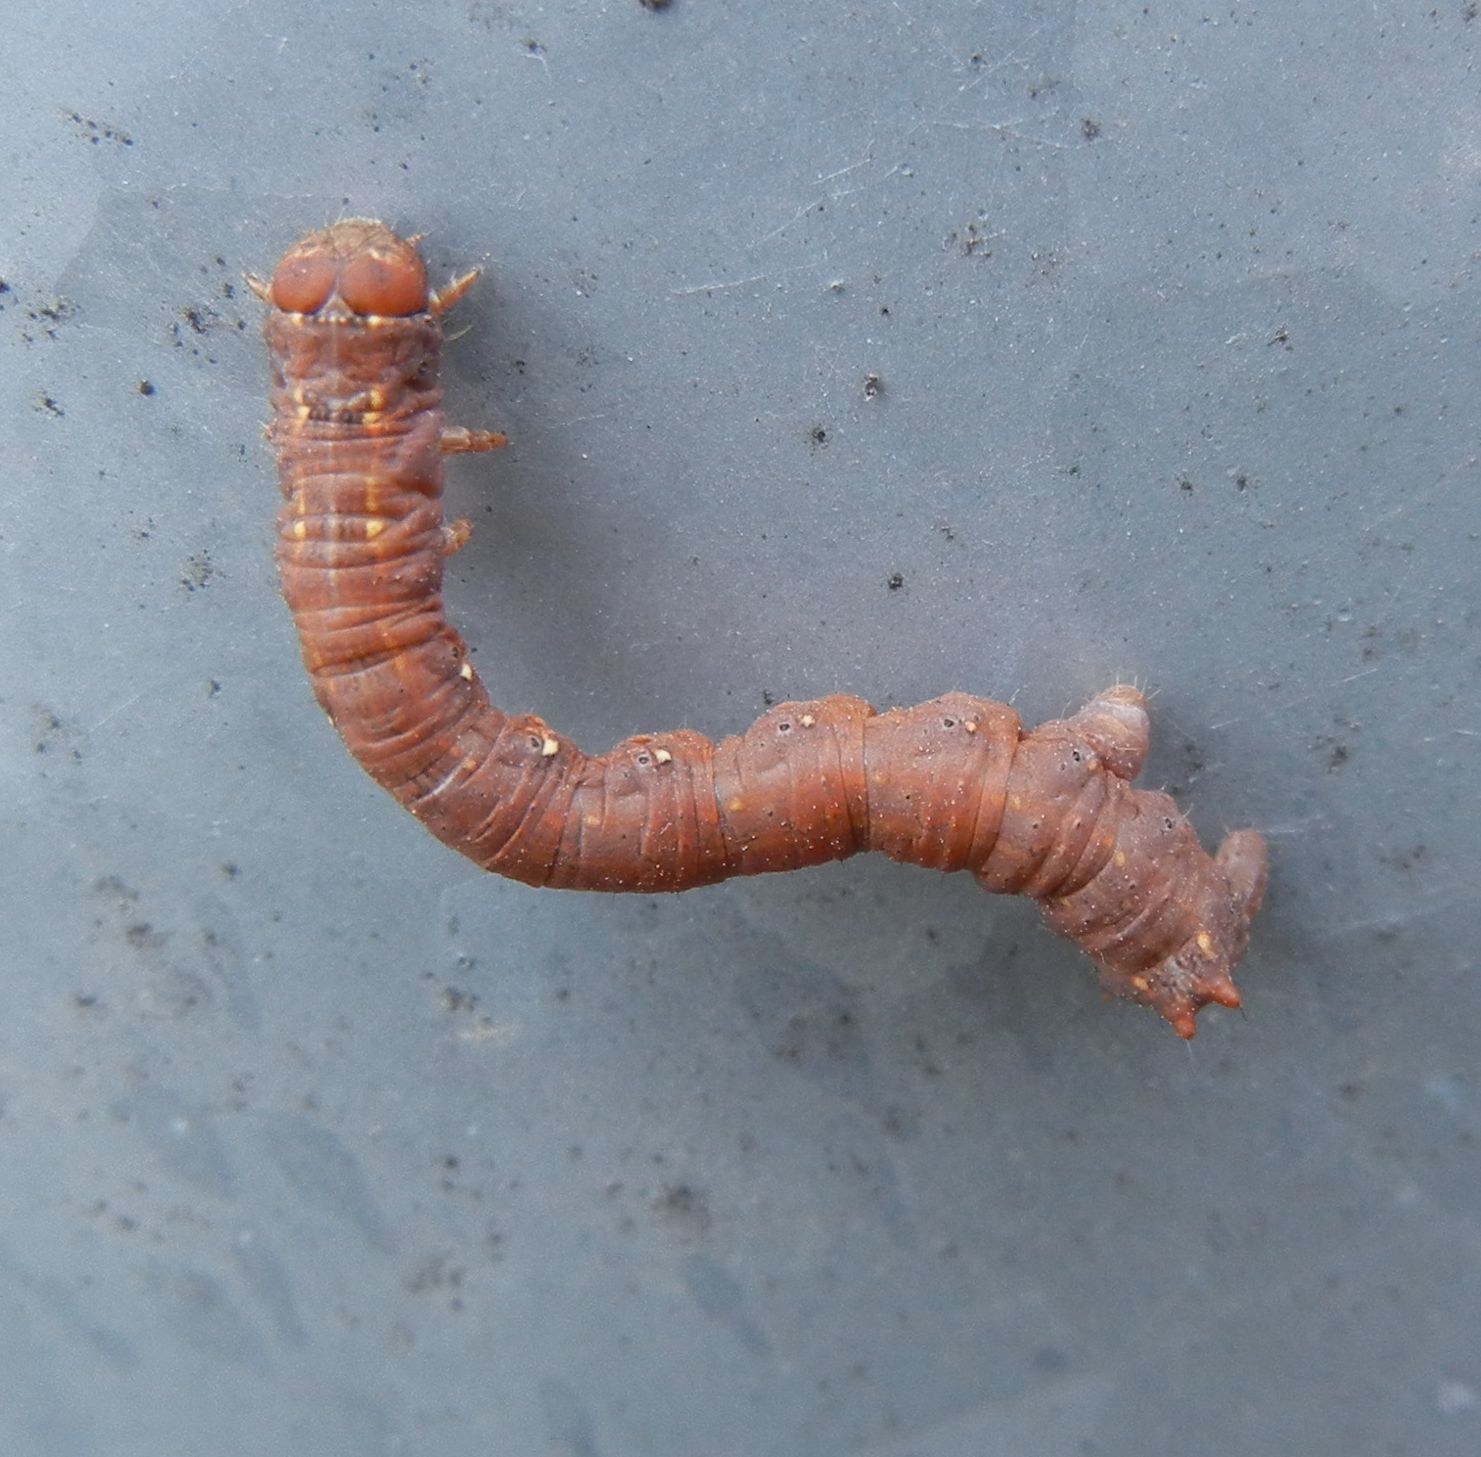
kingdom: Animalia
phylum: Arthropoda
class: Insecta
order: Lepidoptera
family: Geometridae
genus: Colotois
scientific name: Colotois pennaria
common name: Feathered thorn
